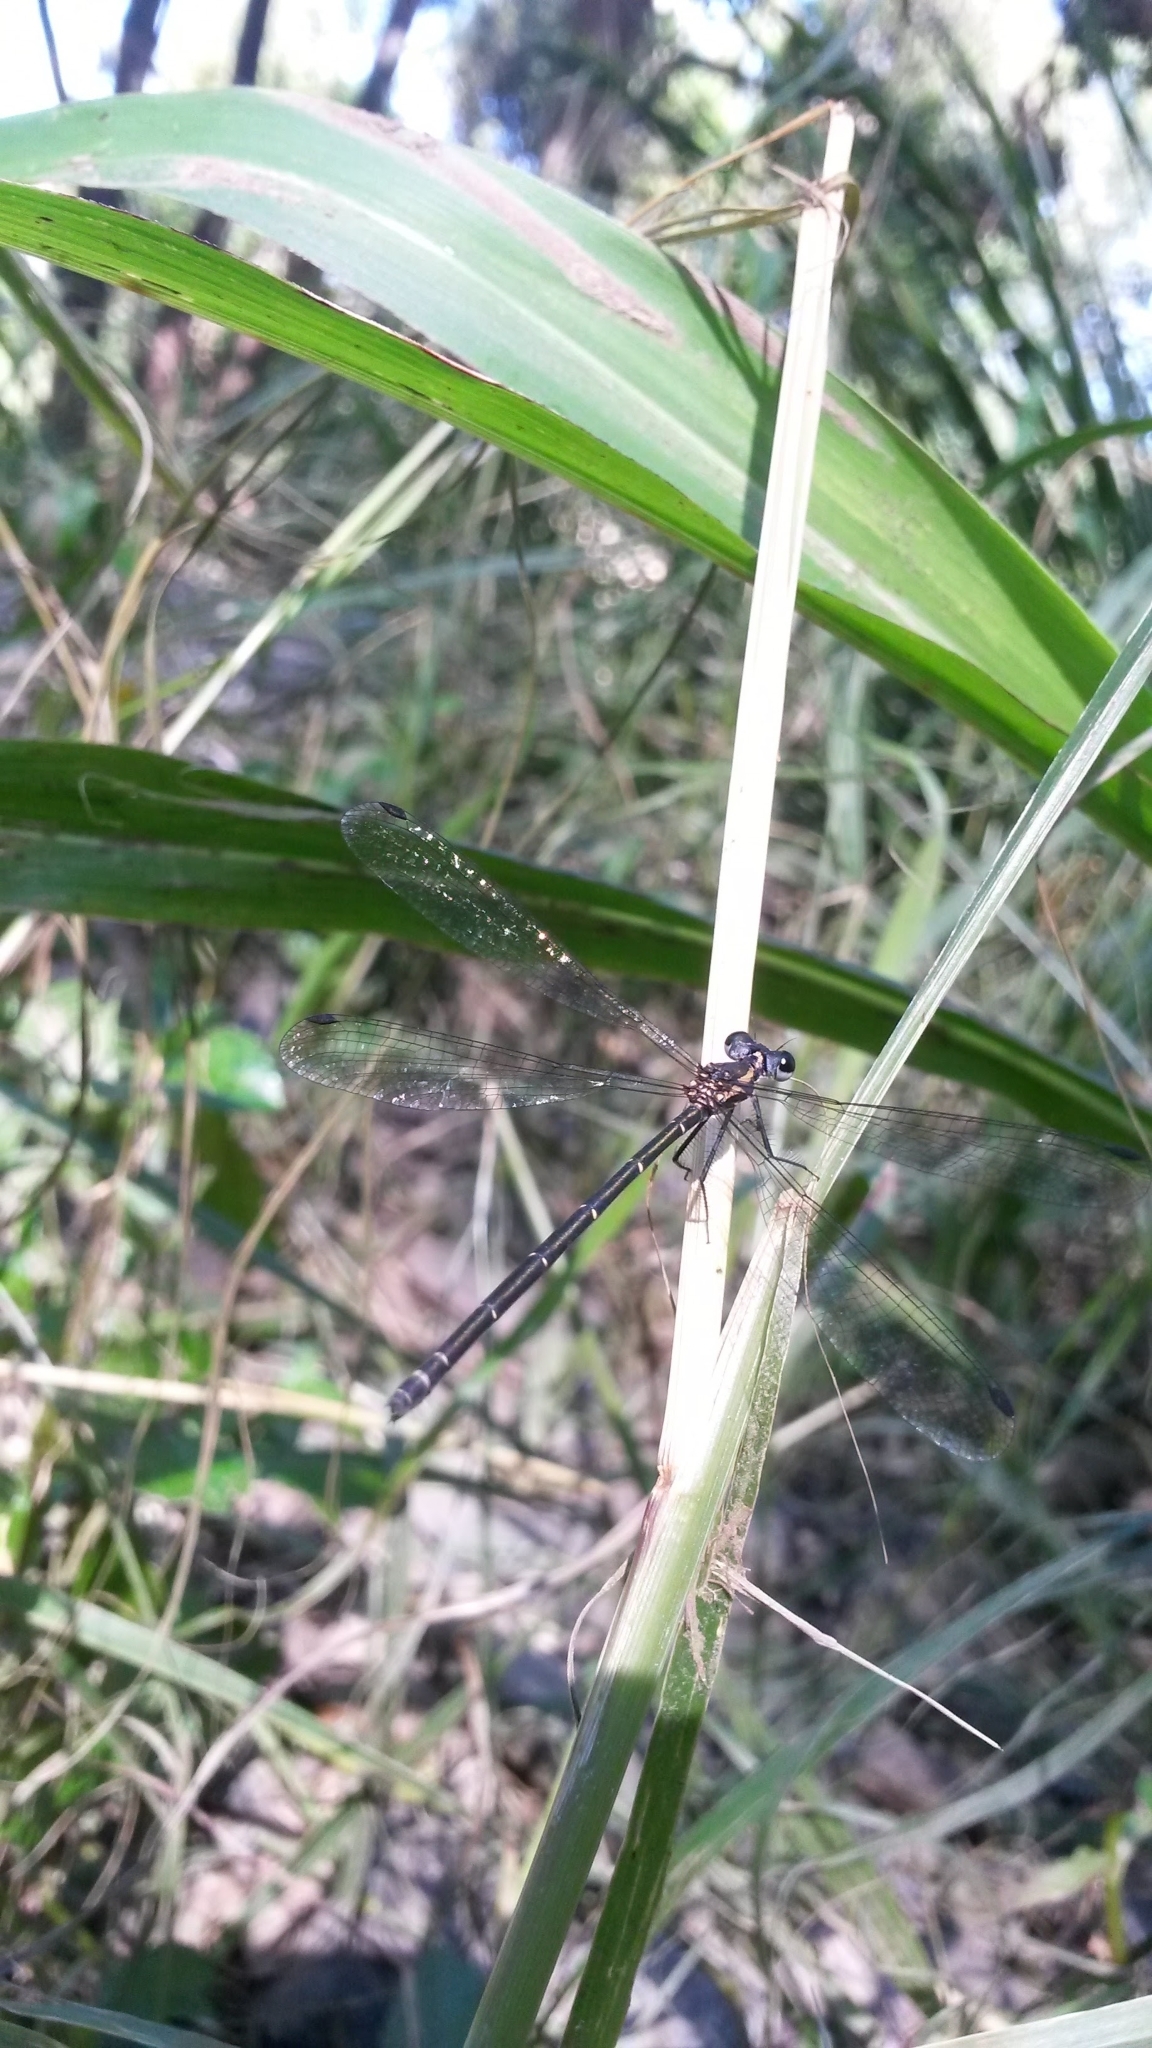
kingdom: Animalia
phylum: Arthropoda
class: Insecta
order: Odonata
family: Argiolestidae
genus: Austroargiolestes
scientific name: Austroargiolestes icteromelas
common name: Common flatwing
